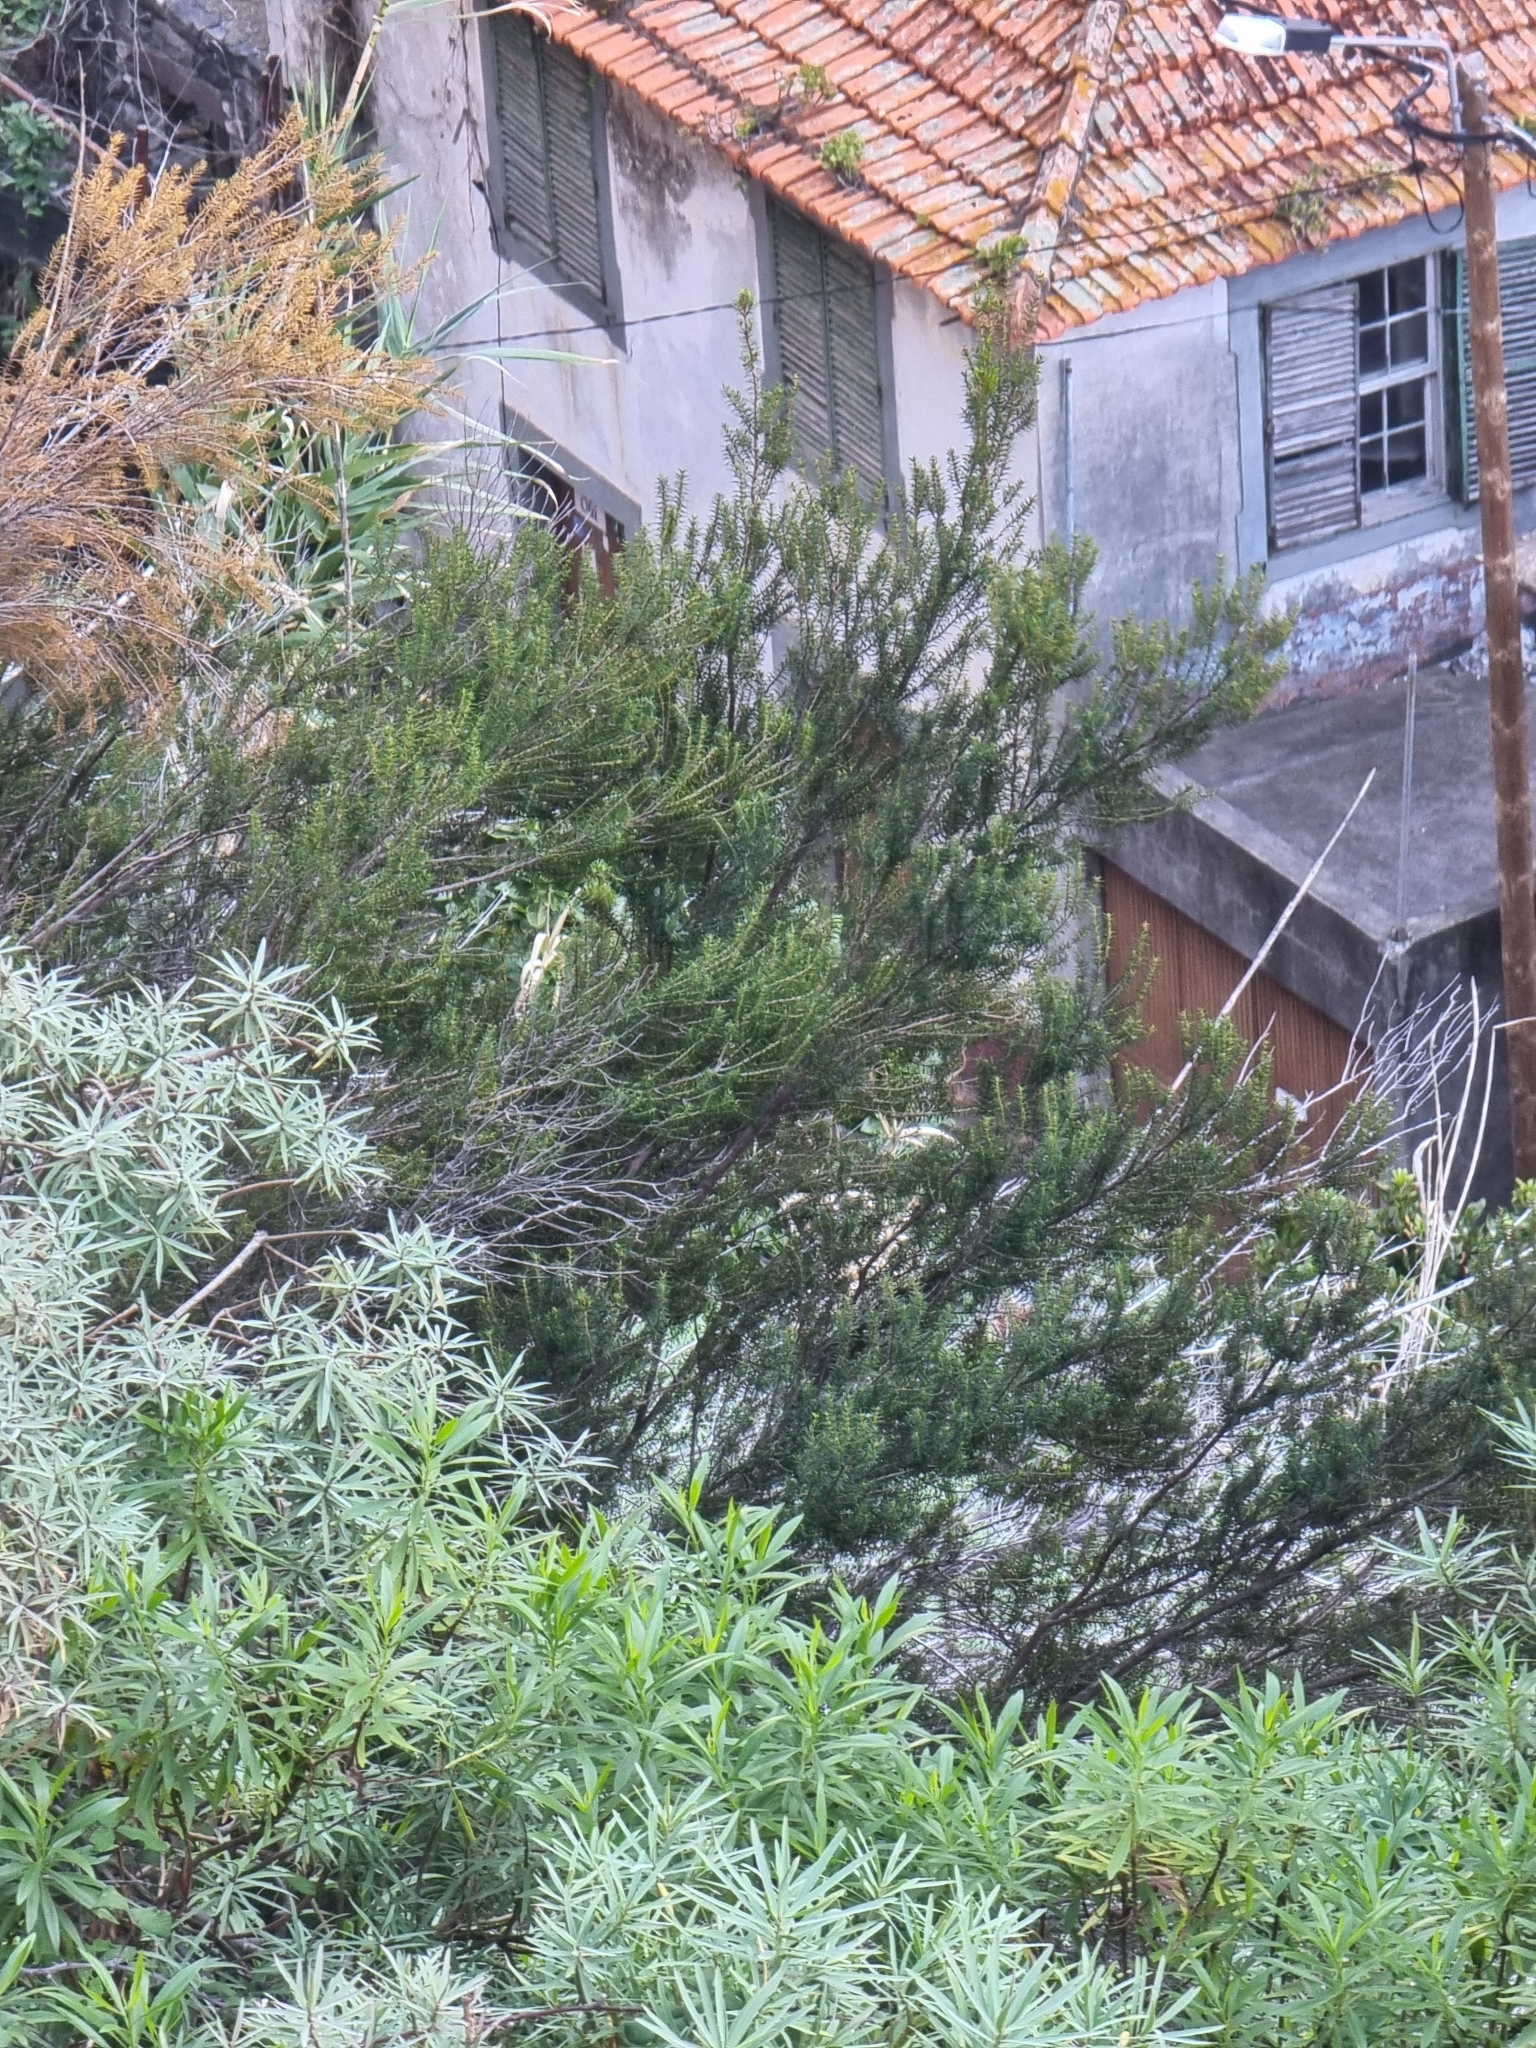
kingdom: Plantae
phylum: Tracheophyta
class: Magnoliopsida
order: Ericales
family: Ericaceae
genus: Erica
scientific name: Erica platycodon
